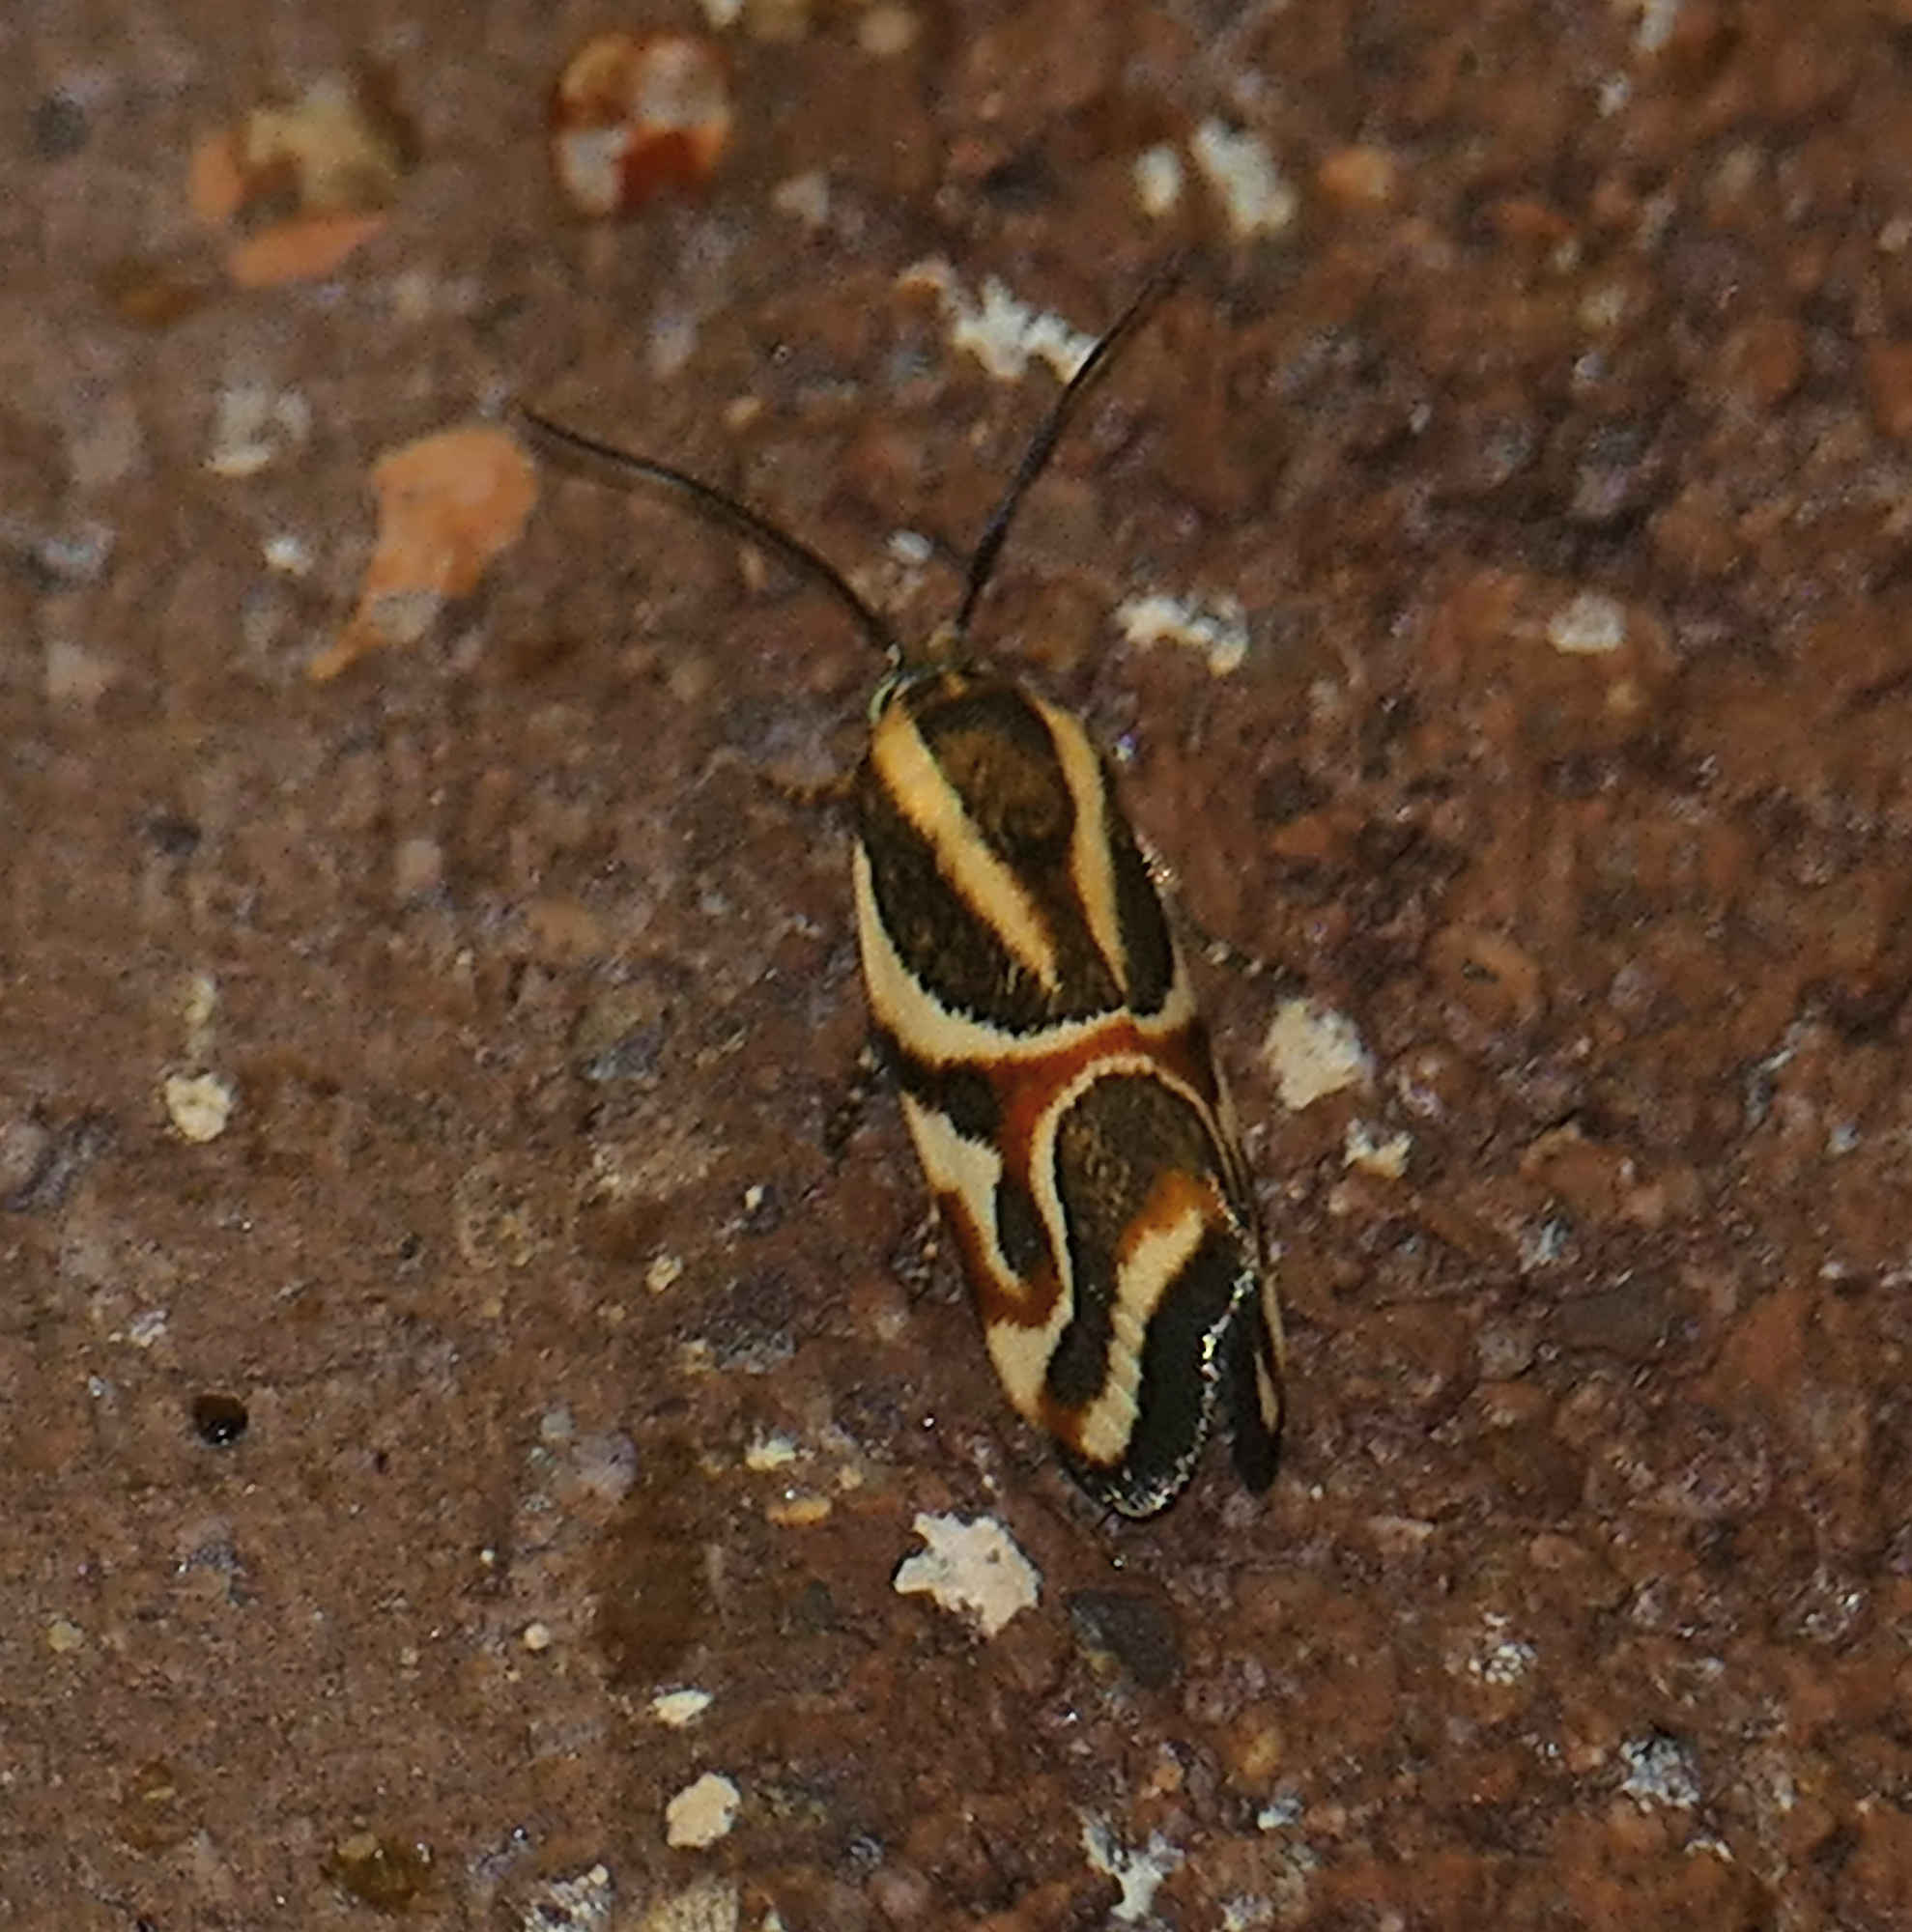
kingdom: Animalia
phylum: Arthropoda
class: Insecta
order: Lepidoptera
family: Noctuidae
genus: Spragueia
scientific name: Spragueia magnifica
